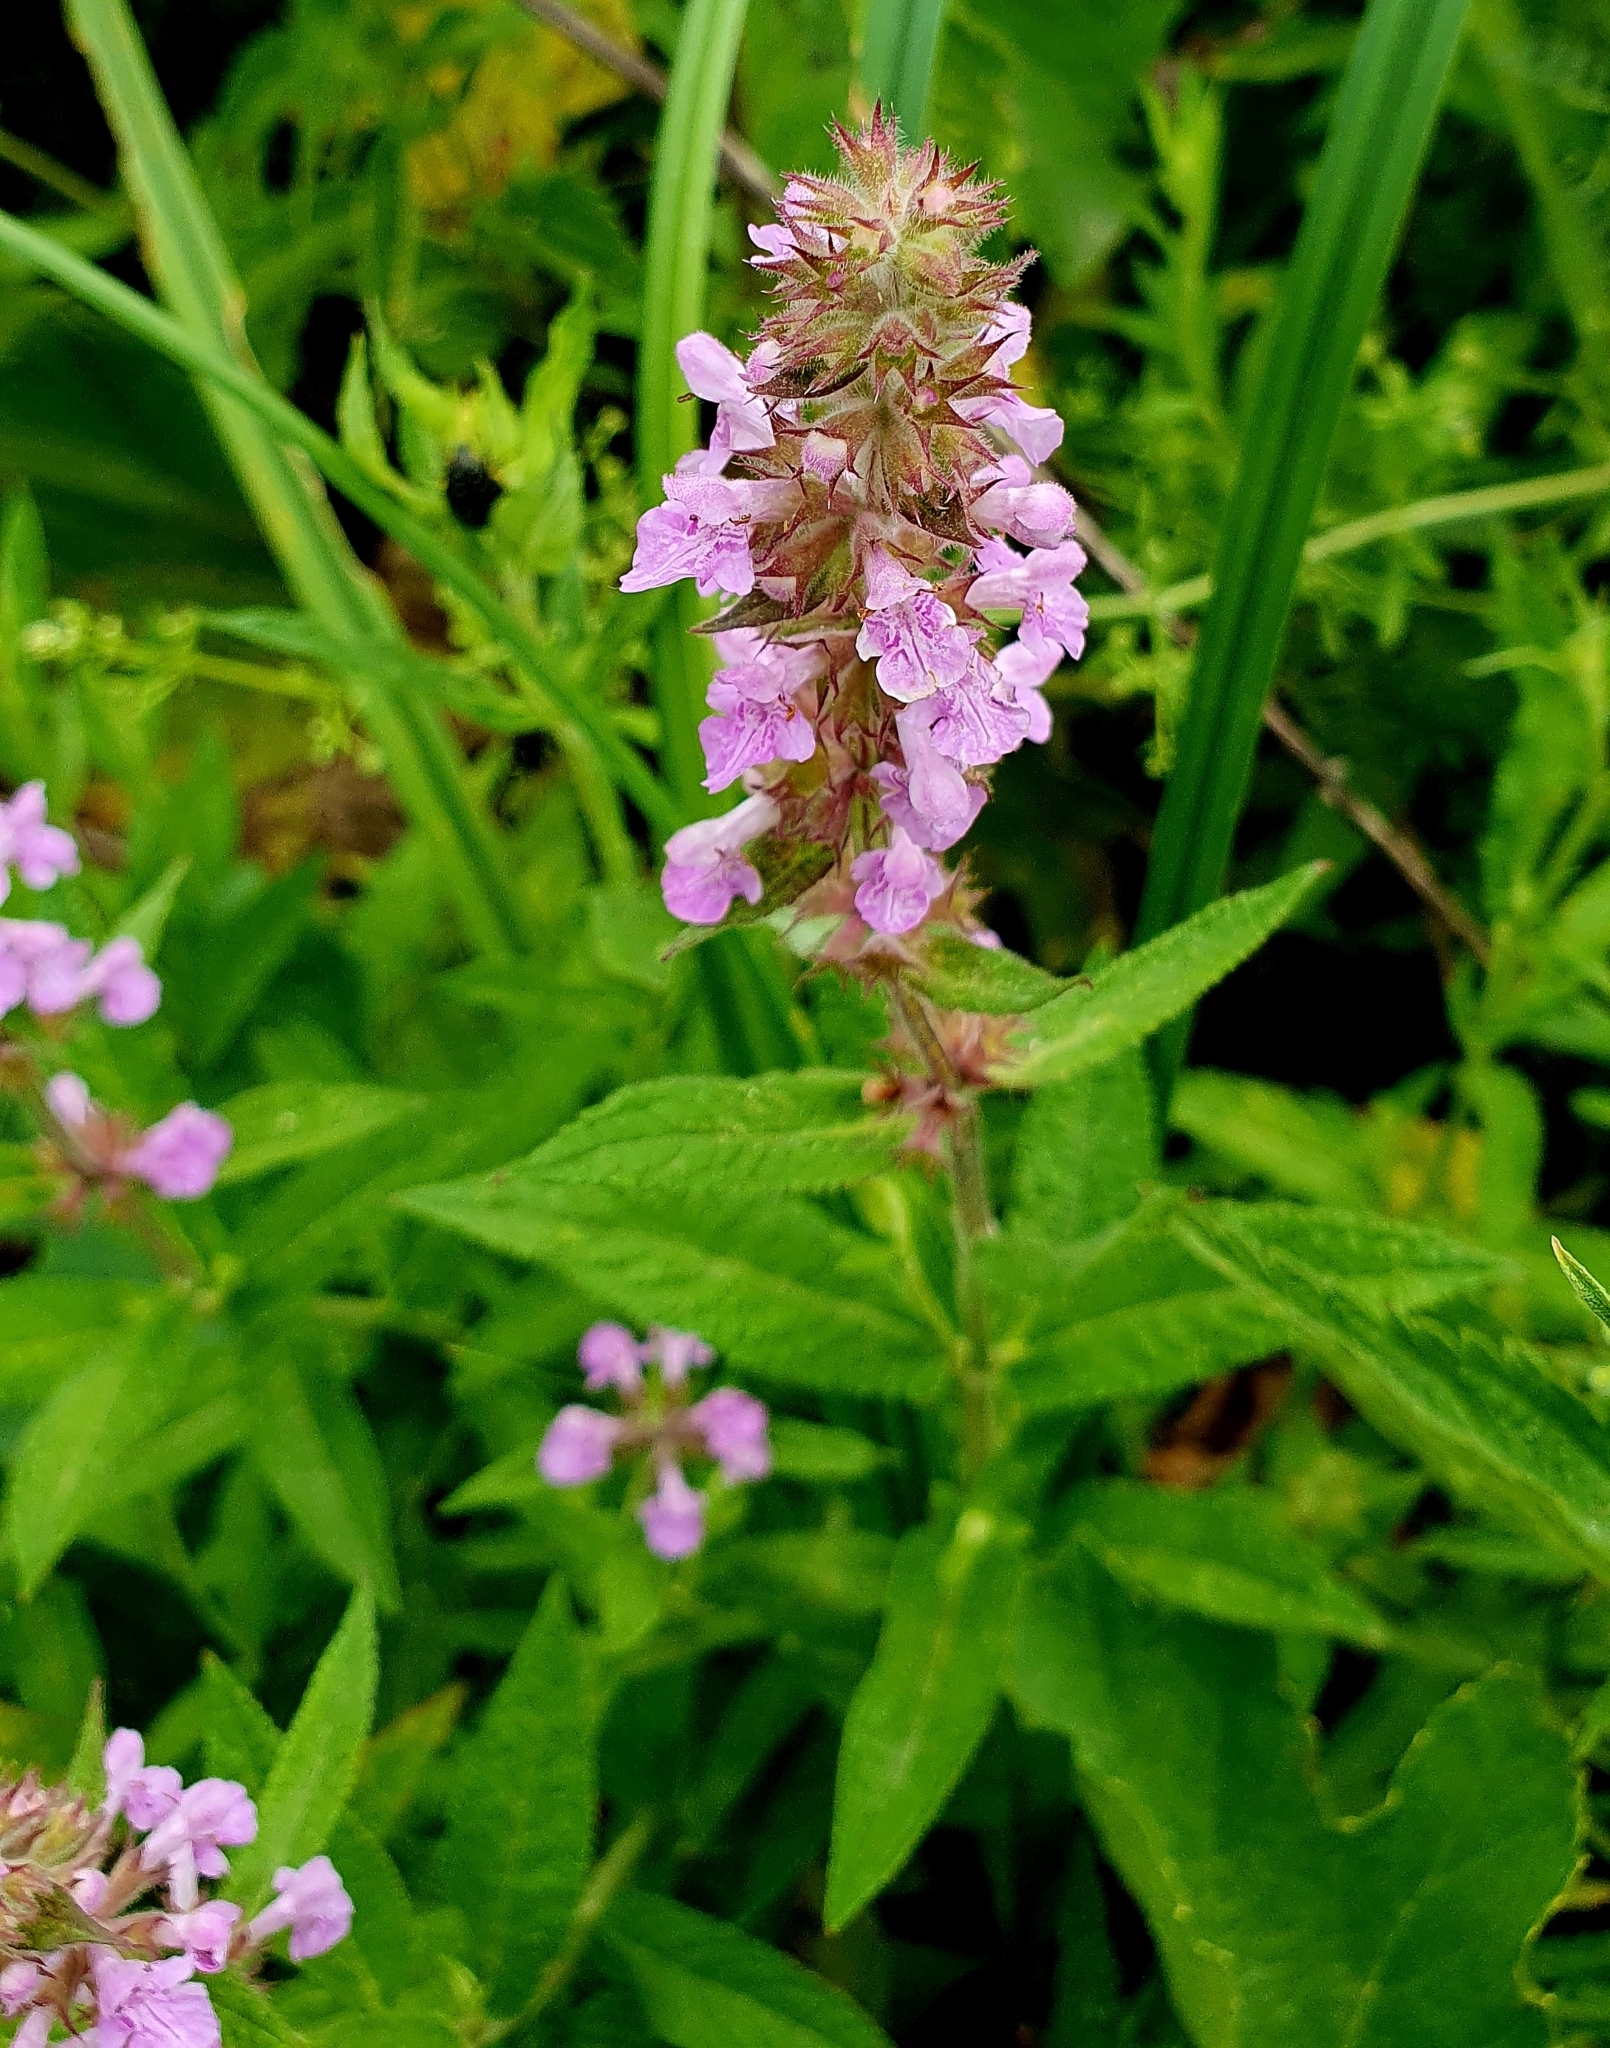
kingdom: Plantae
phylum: Tracheophyta
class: Magnoliopsida
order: Lamiales
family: Lamiaceae
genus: Stachys
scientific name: Stachys palustris
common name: Marsh woundwort
